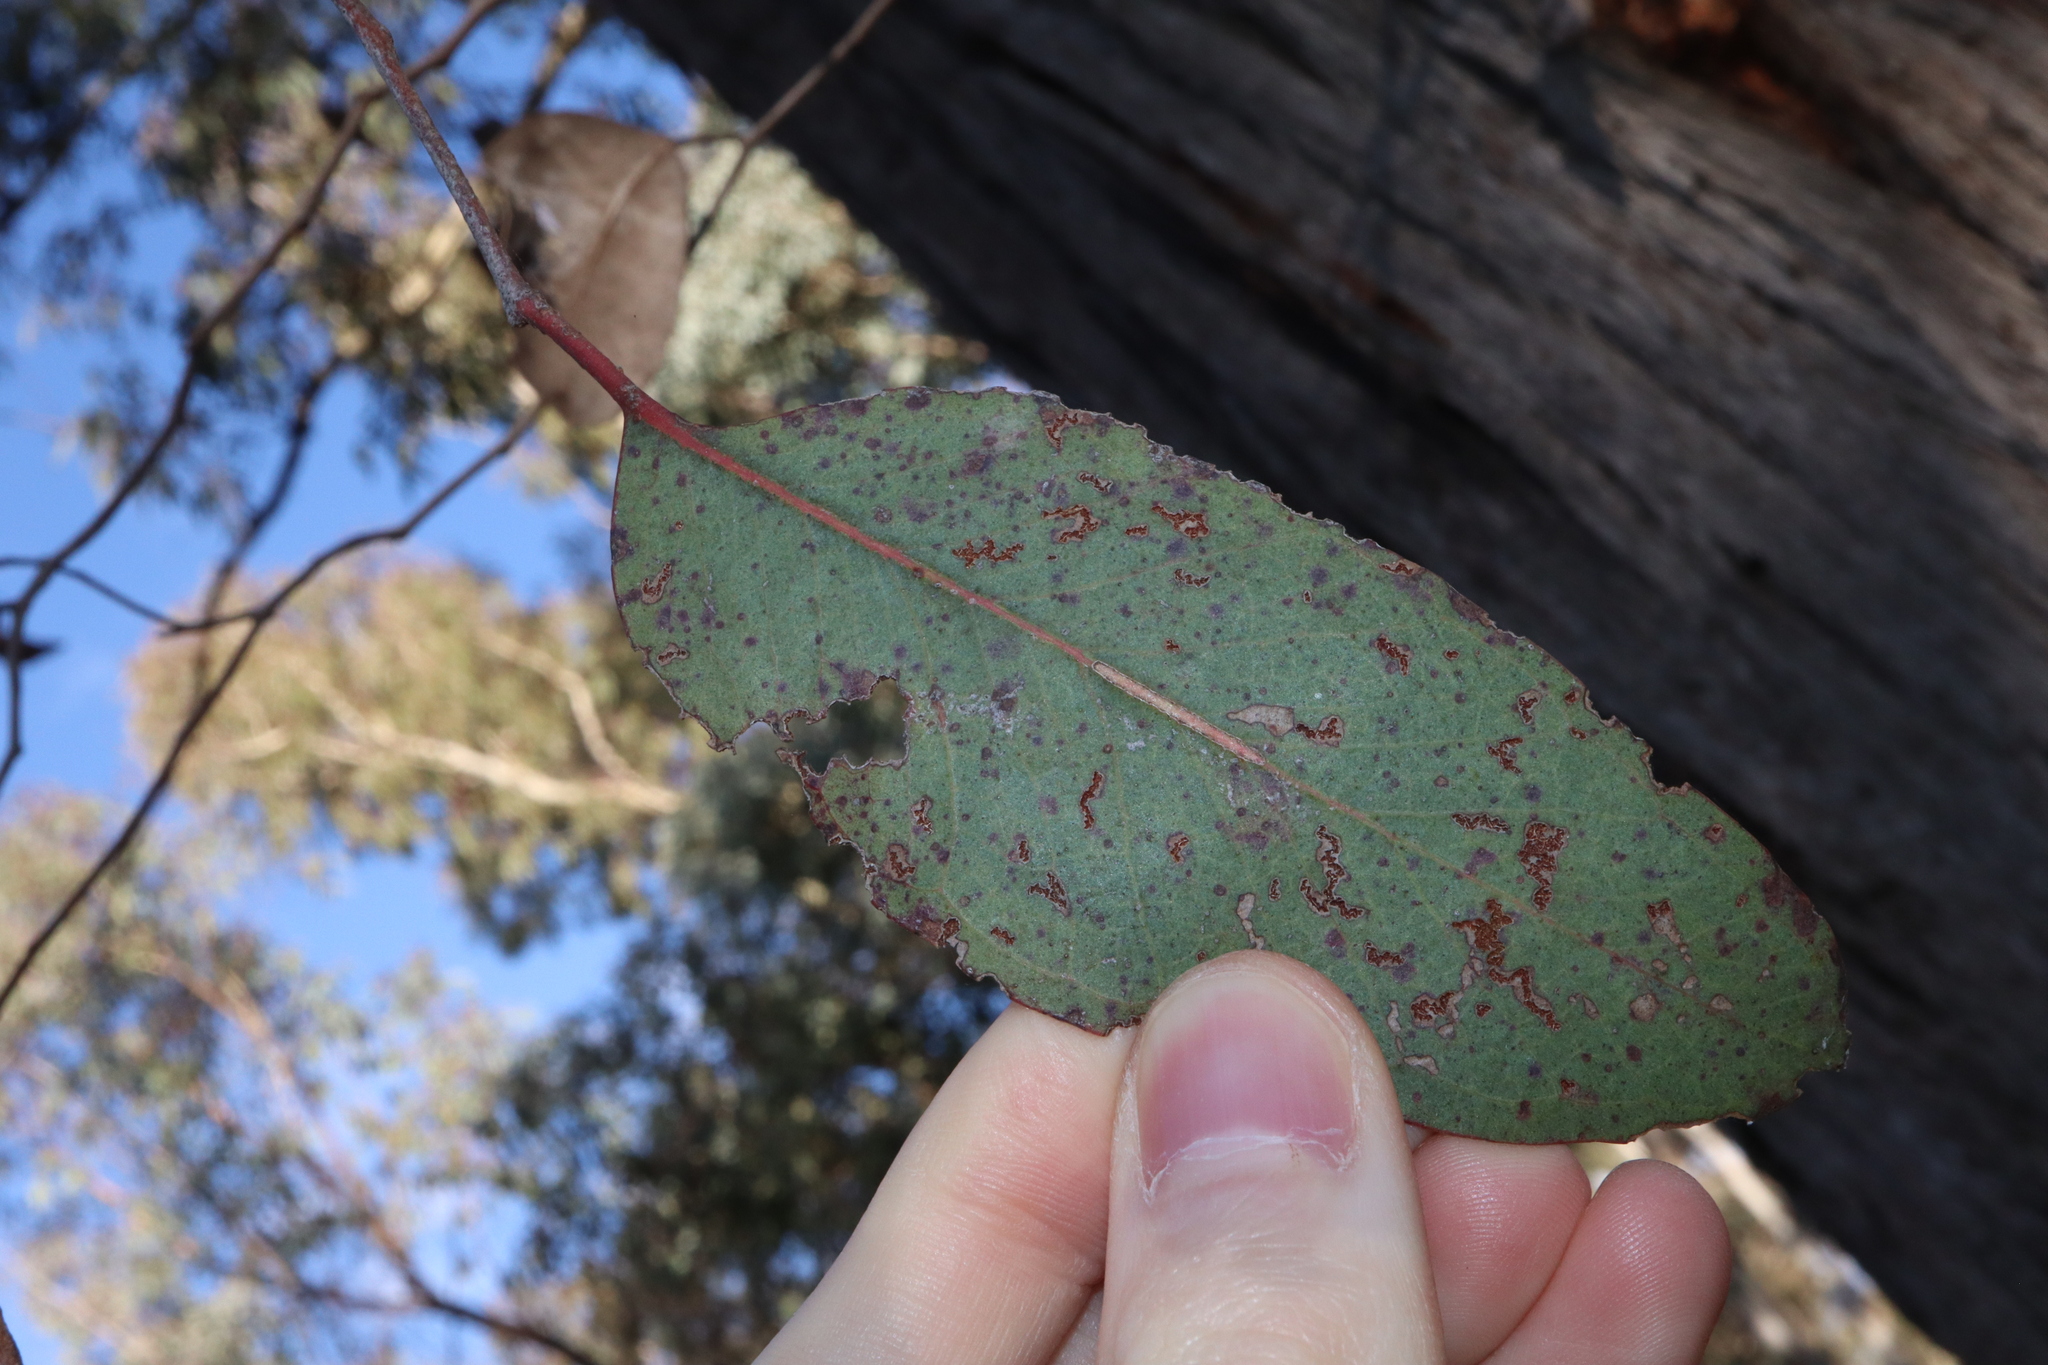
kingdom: Plantae
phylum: Tracheophyta
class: Magnoliopsida
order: Myrtales
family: Myrtaceae
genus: Eucalyptus
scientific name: Eucalyptus macrorhyncha
